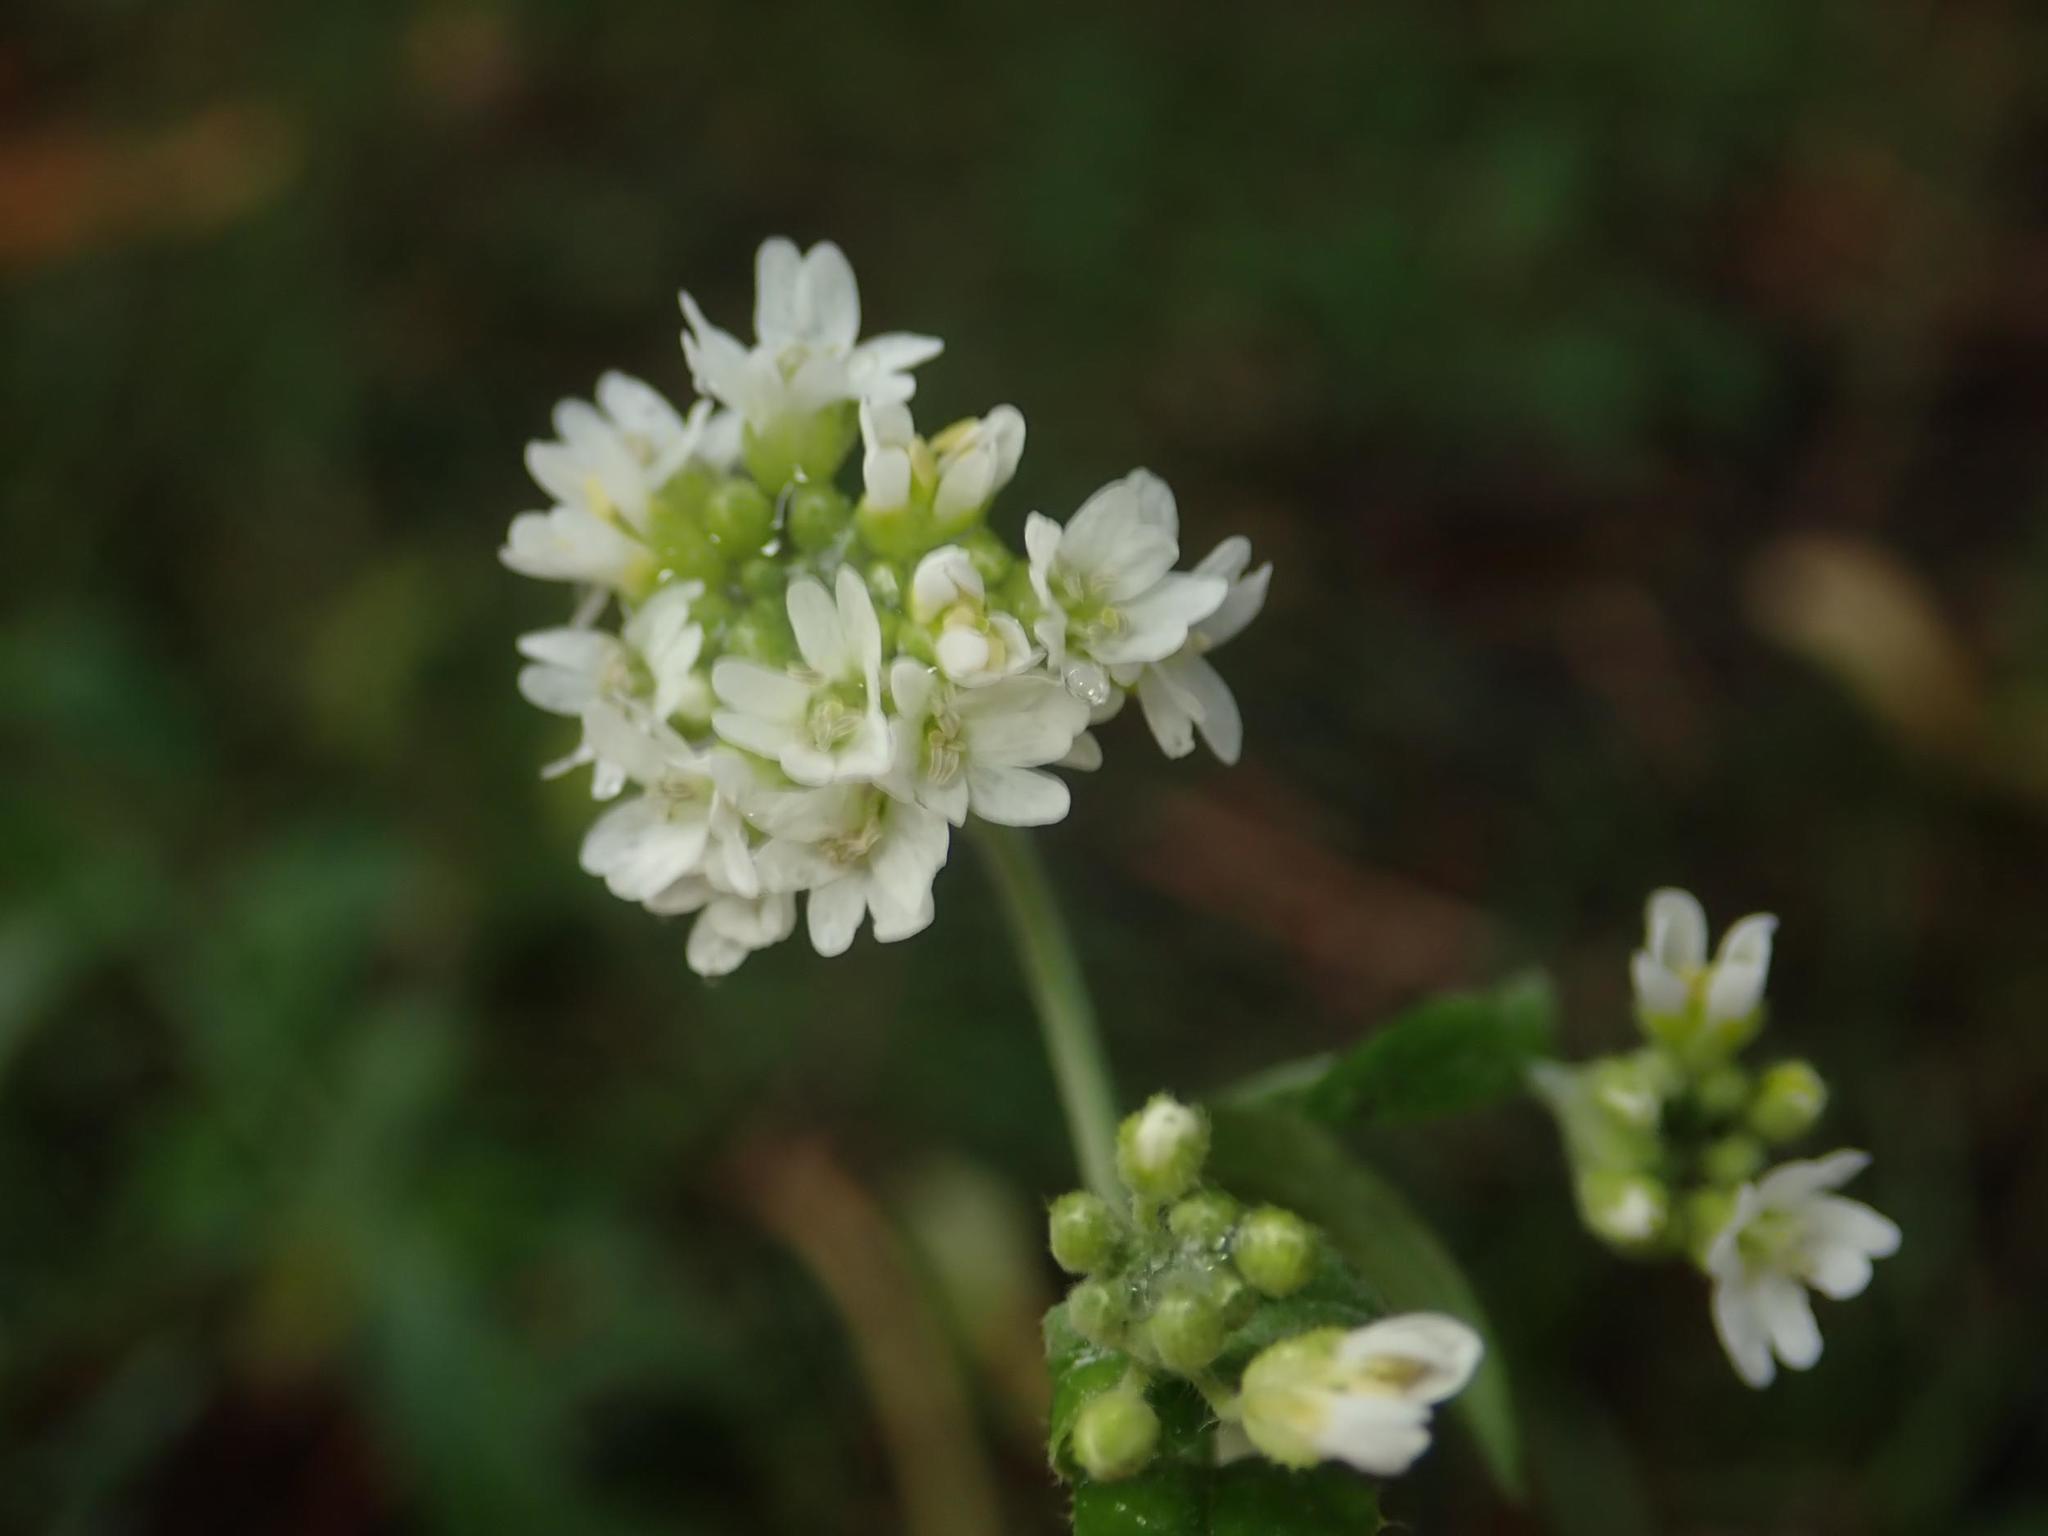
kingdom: Plantae
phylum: Tracheophyta
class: Magnoliopsida
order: Brassicales
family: Brassicaceae
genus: Berteroa
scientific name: Berteroa incana
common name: Hoary alison
